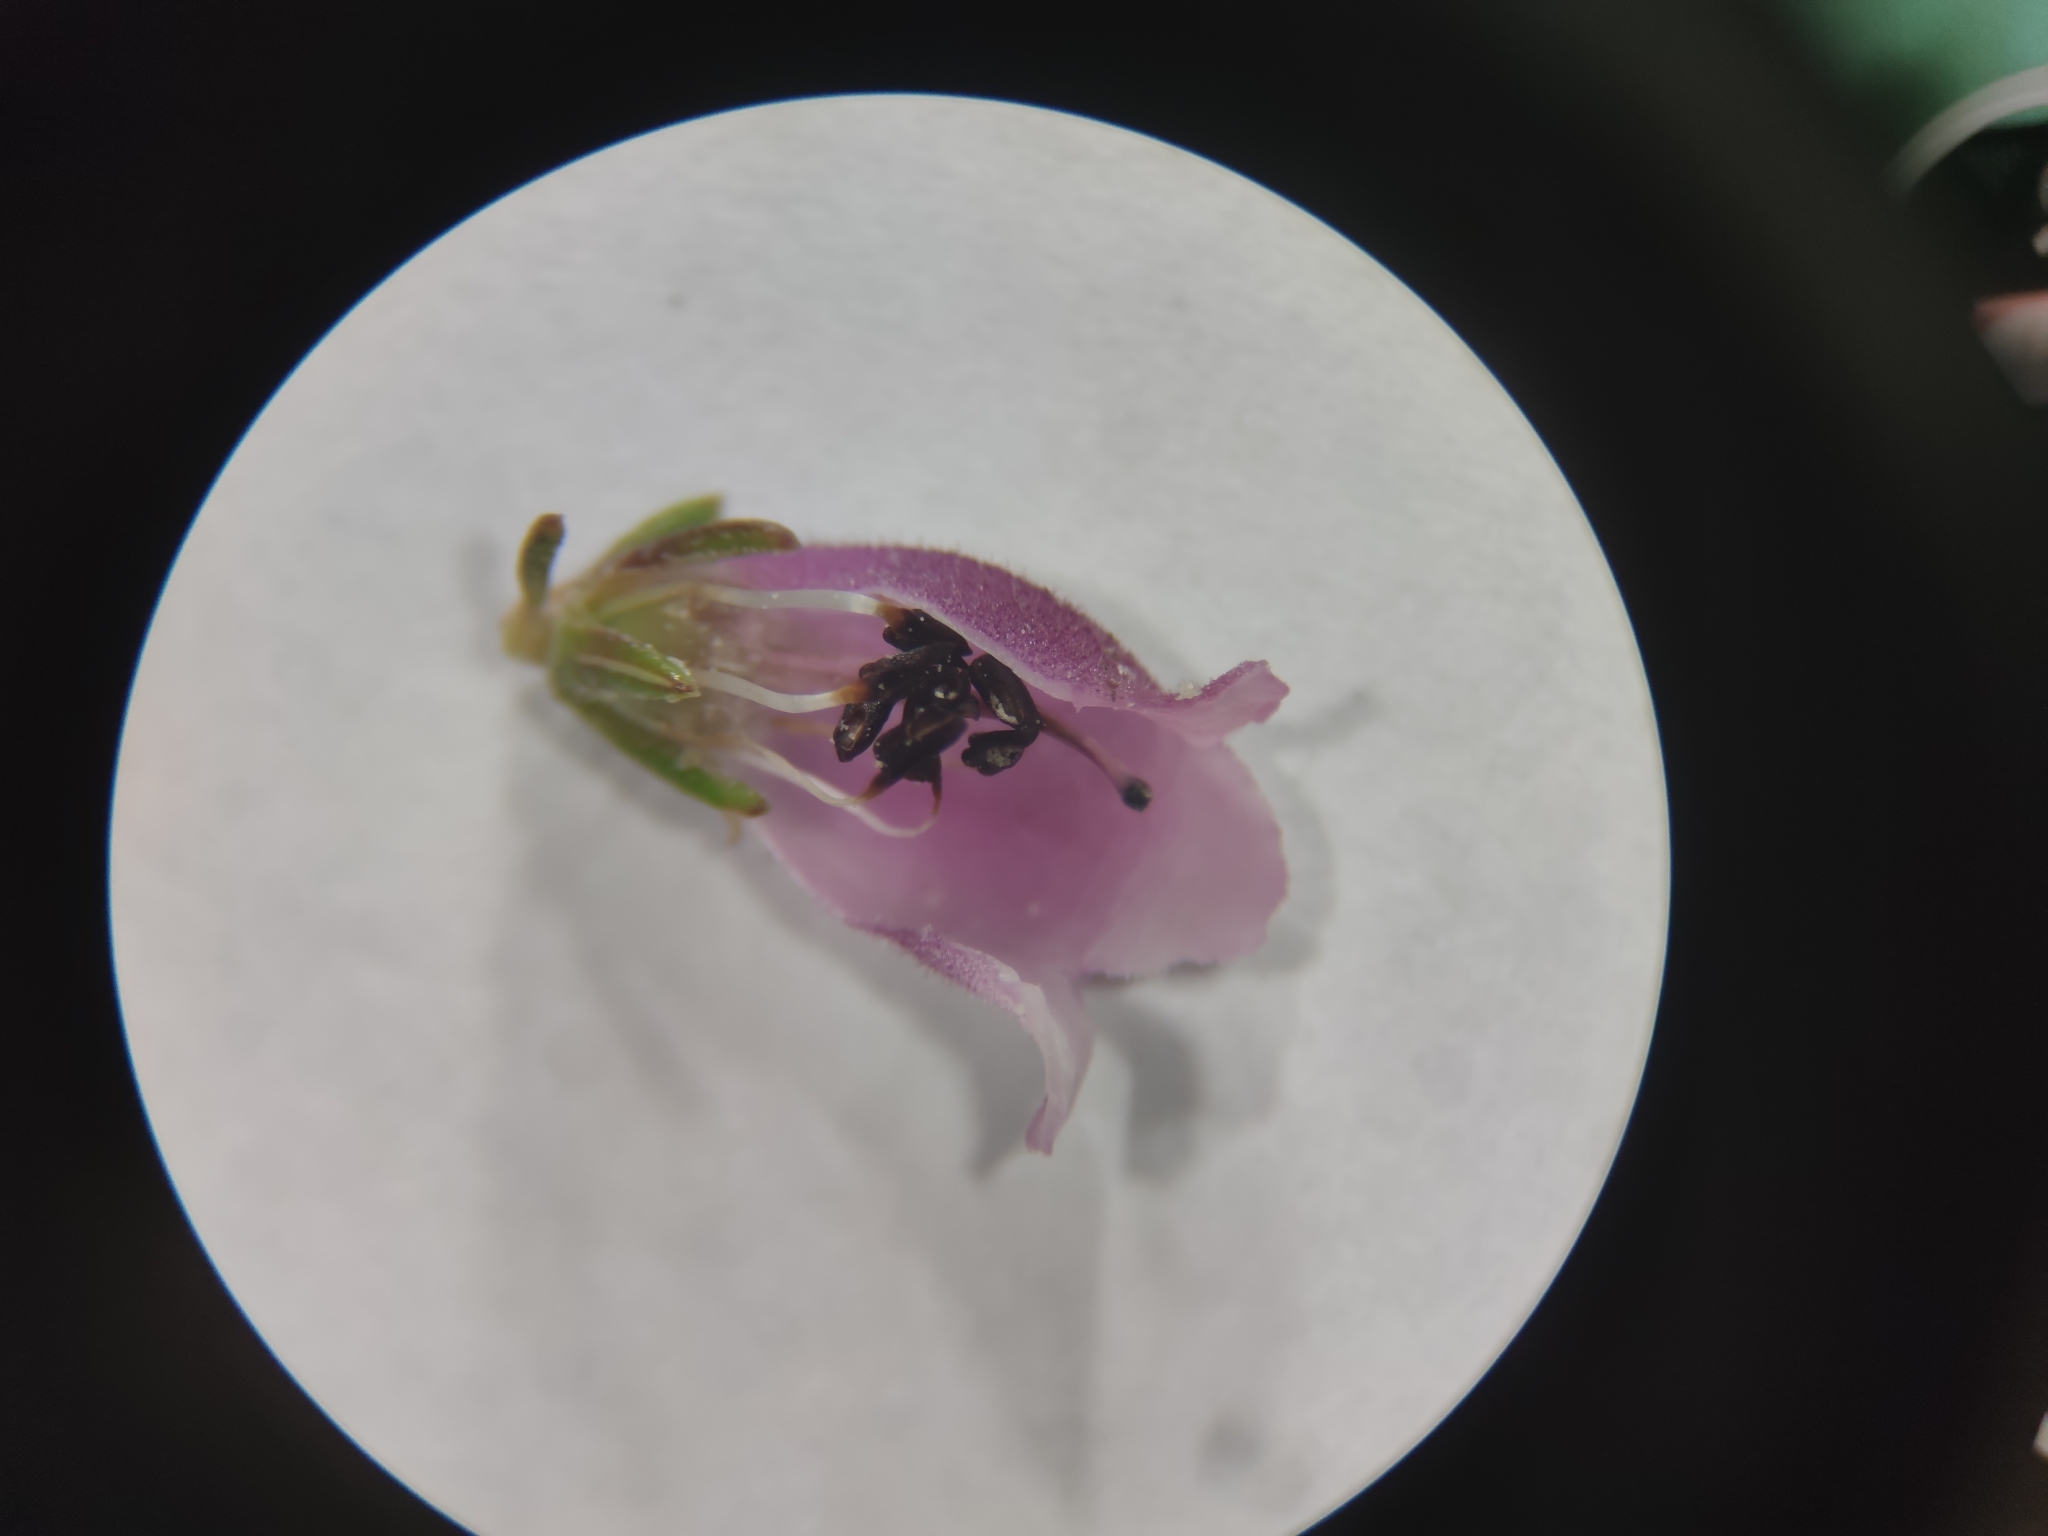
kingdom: Plantae
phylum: Tracheophyta
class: Magnoliopsida
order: Ericales
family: Ericaceae
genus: Erica
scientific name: Erica viscaria
